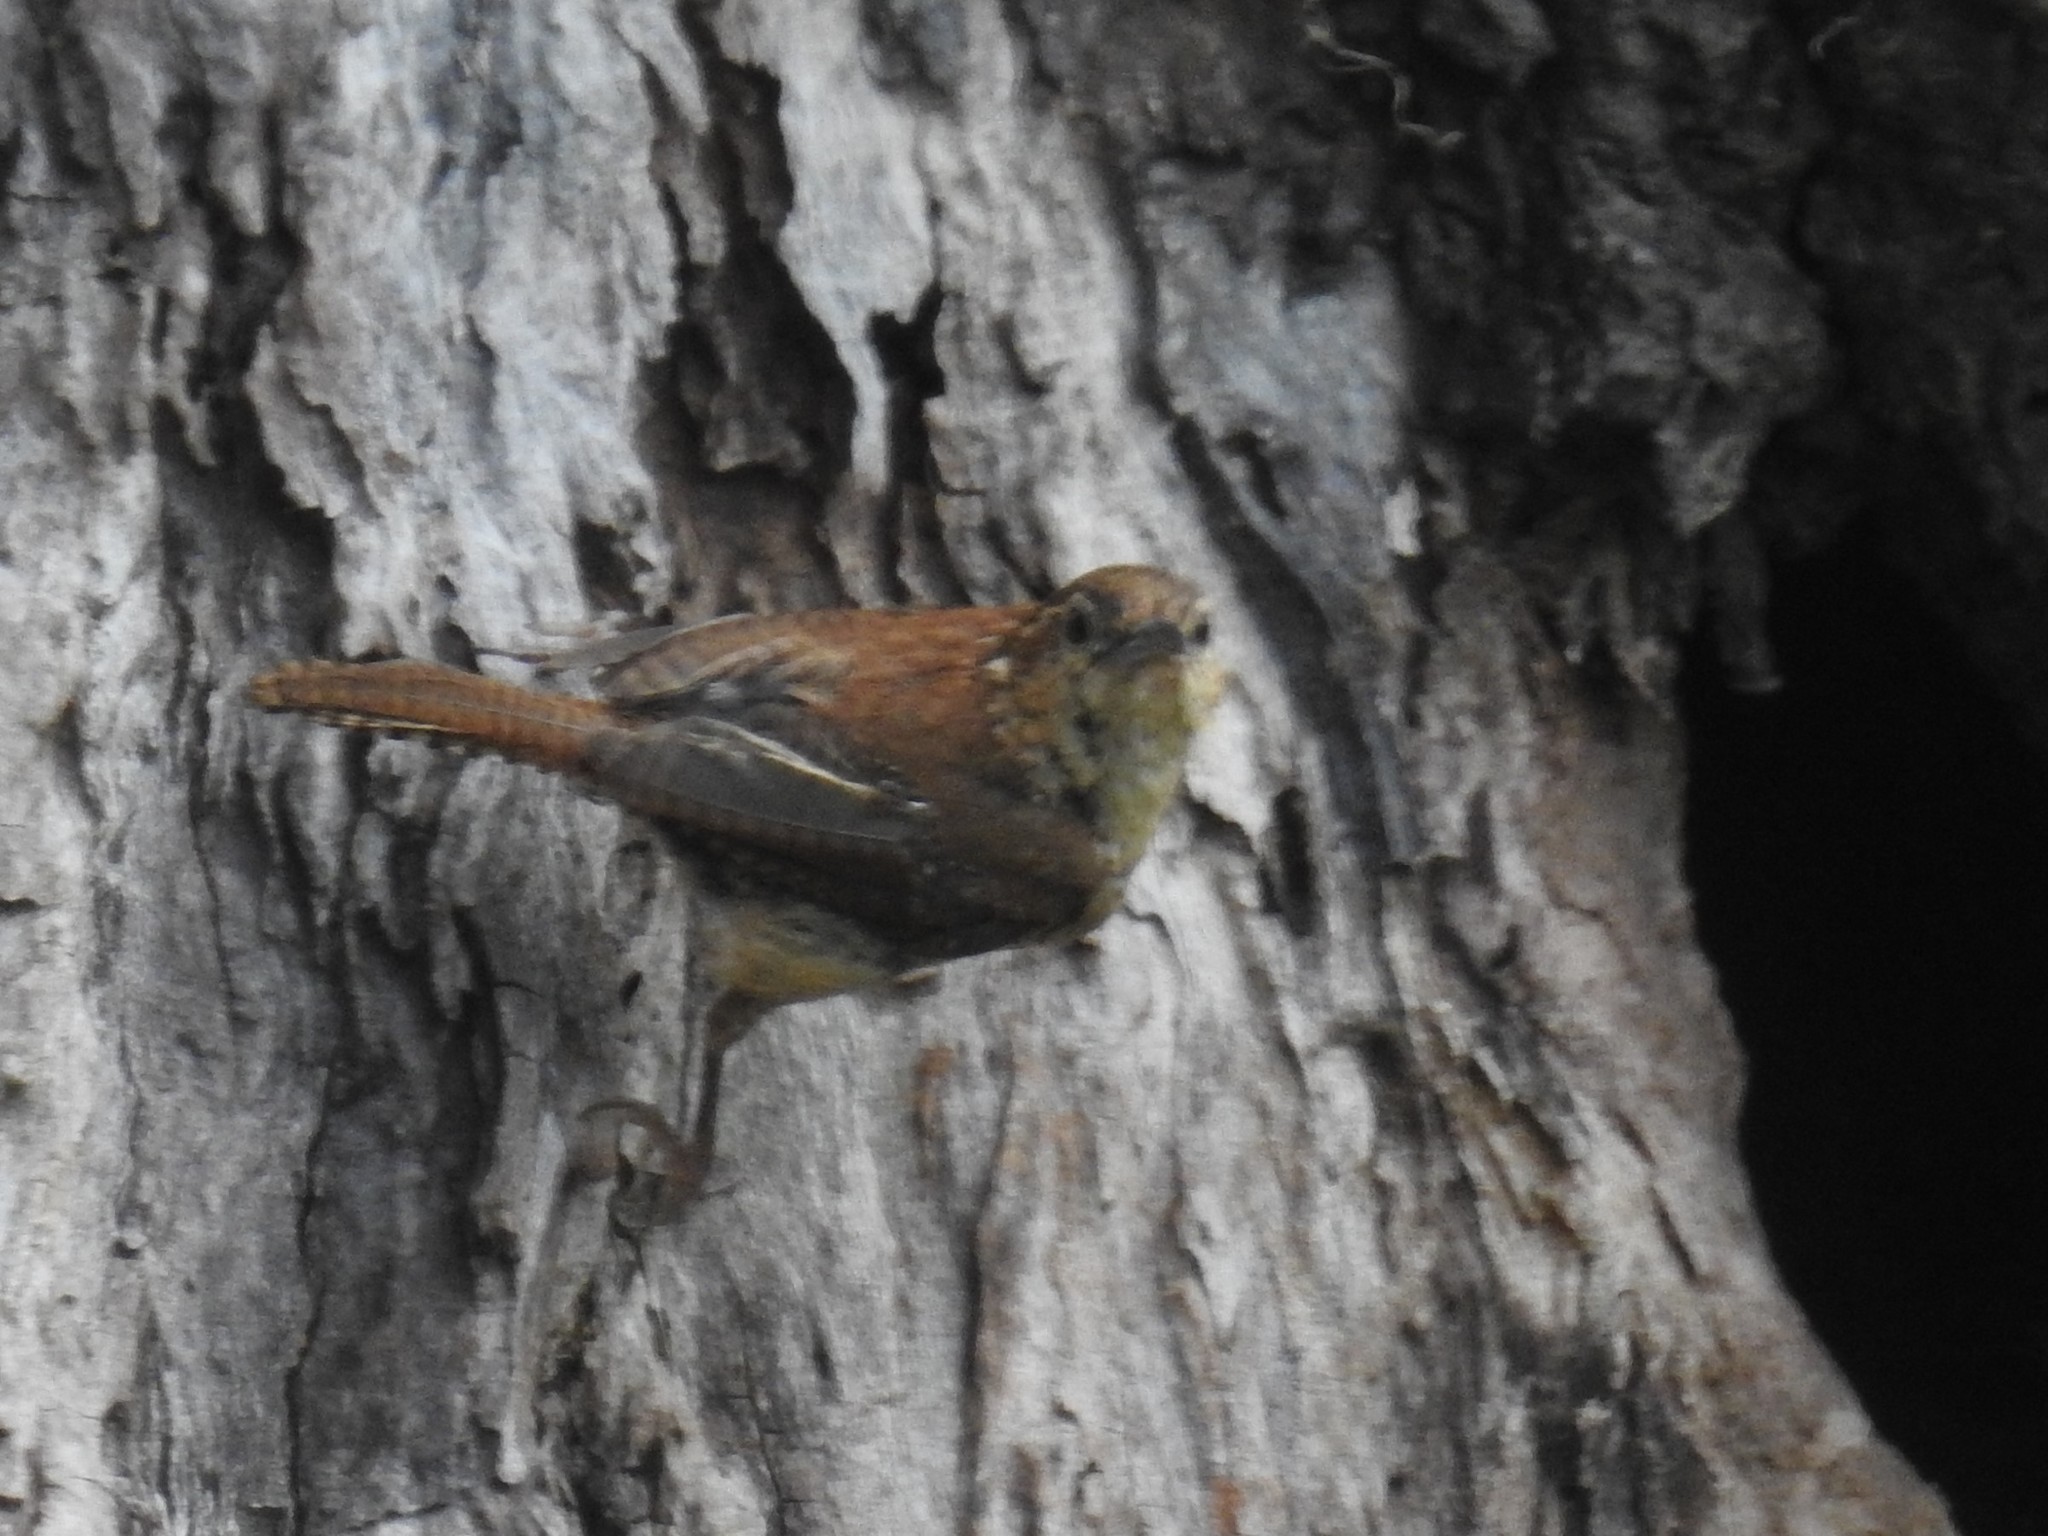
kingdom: Animalia
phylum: Chordata
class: Aves
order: Passeriformes
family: Troglodytidae
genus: Thryothorus
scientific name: Thryothorus ludovicianus
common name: Carolina wren
